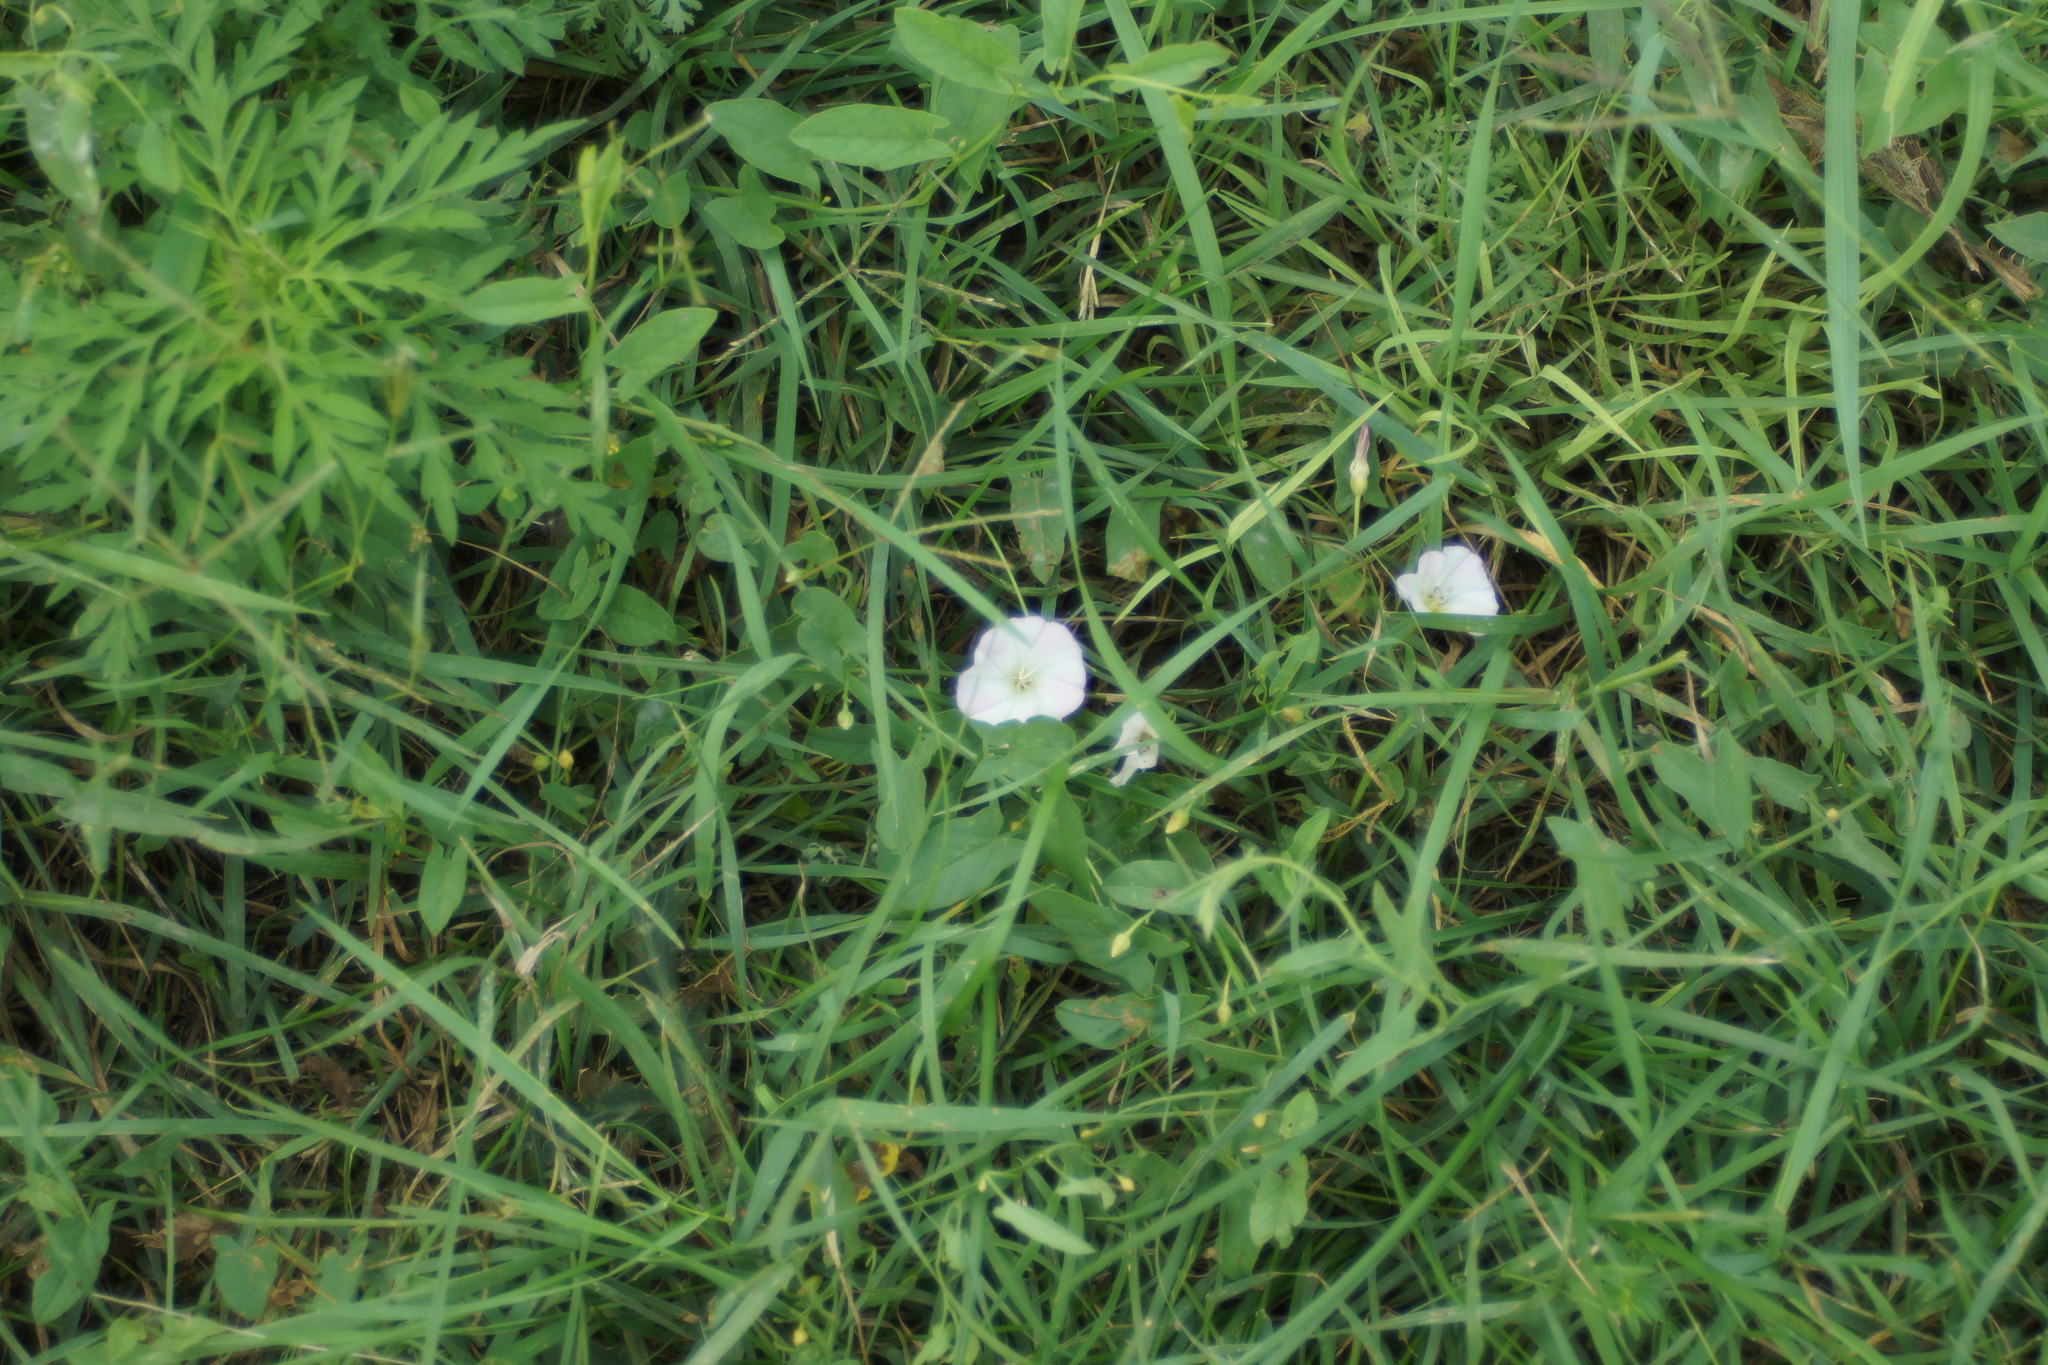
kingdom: Plantae
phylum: Tracheophyta
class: Magnoliopsida
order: Solanales
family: Convolvulaceae
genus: Convolvulus
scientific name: Convolvulus arvensis
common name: Field bindweed
